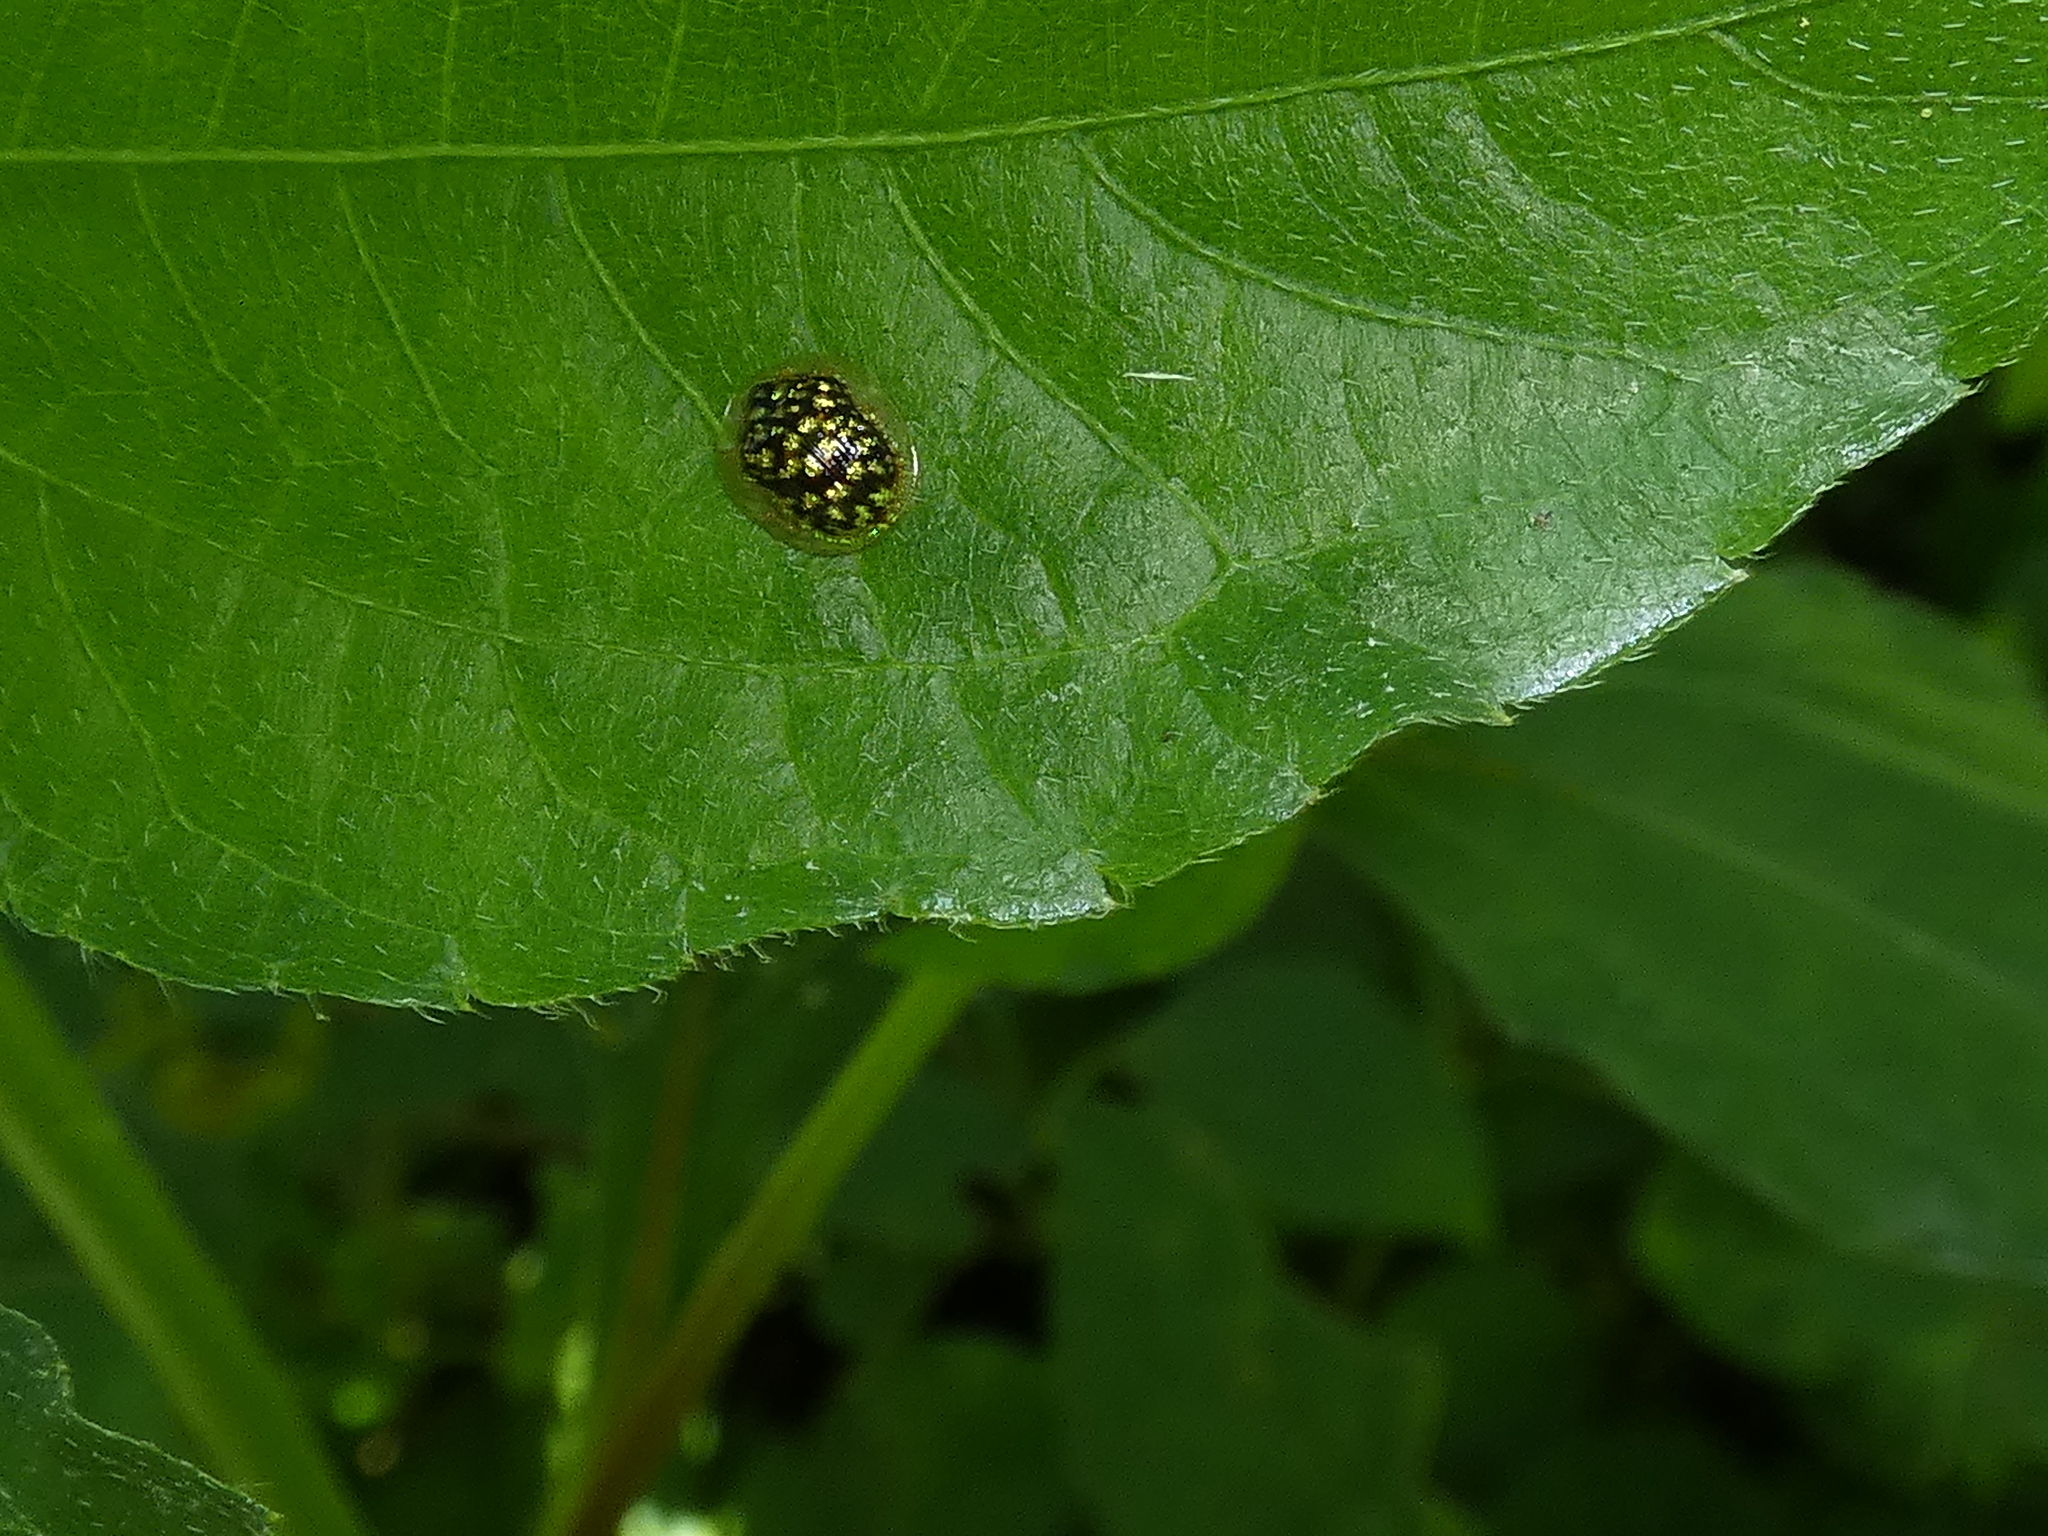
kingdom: Animalia
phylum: Arthropoda
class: Insecta
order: Coleoptera
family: Chrysomelidae
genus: Cteisella
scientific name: Cteisella guttigera
